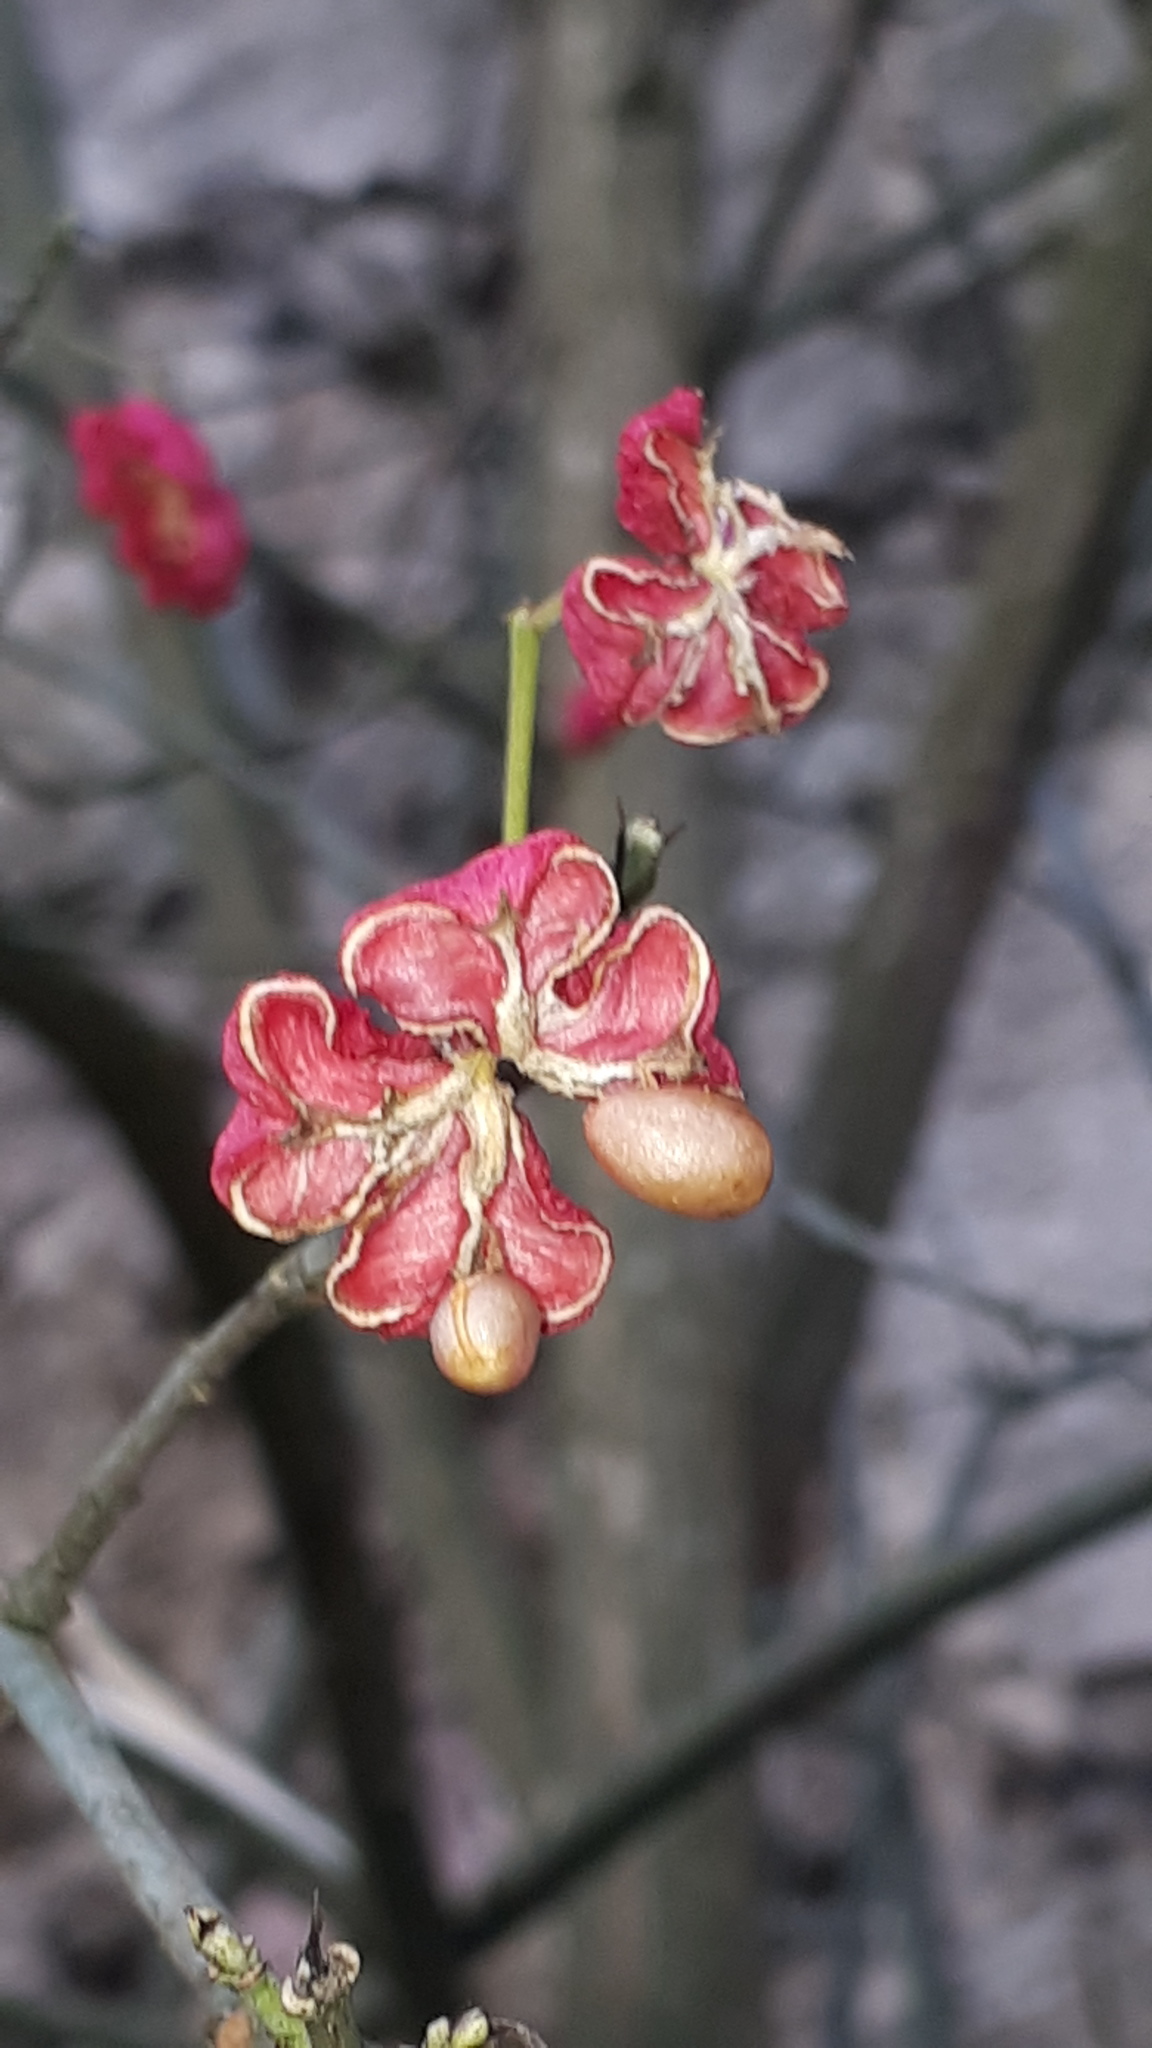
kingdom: Plantae
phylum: Tracheophyta
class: Magnoliopsida
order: Celastrales
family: Celastraceae
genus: Euonymus
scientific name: Euonymus europaeus
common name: Spindle
